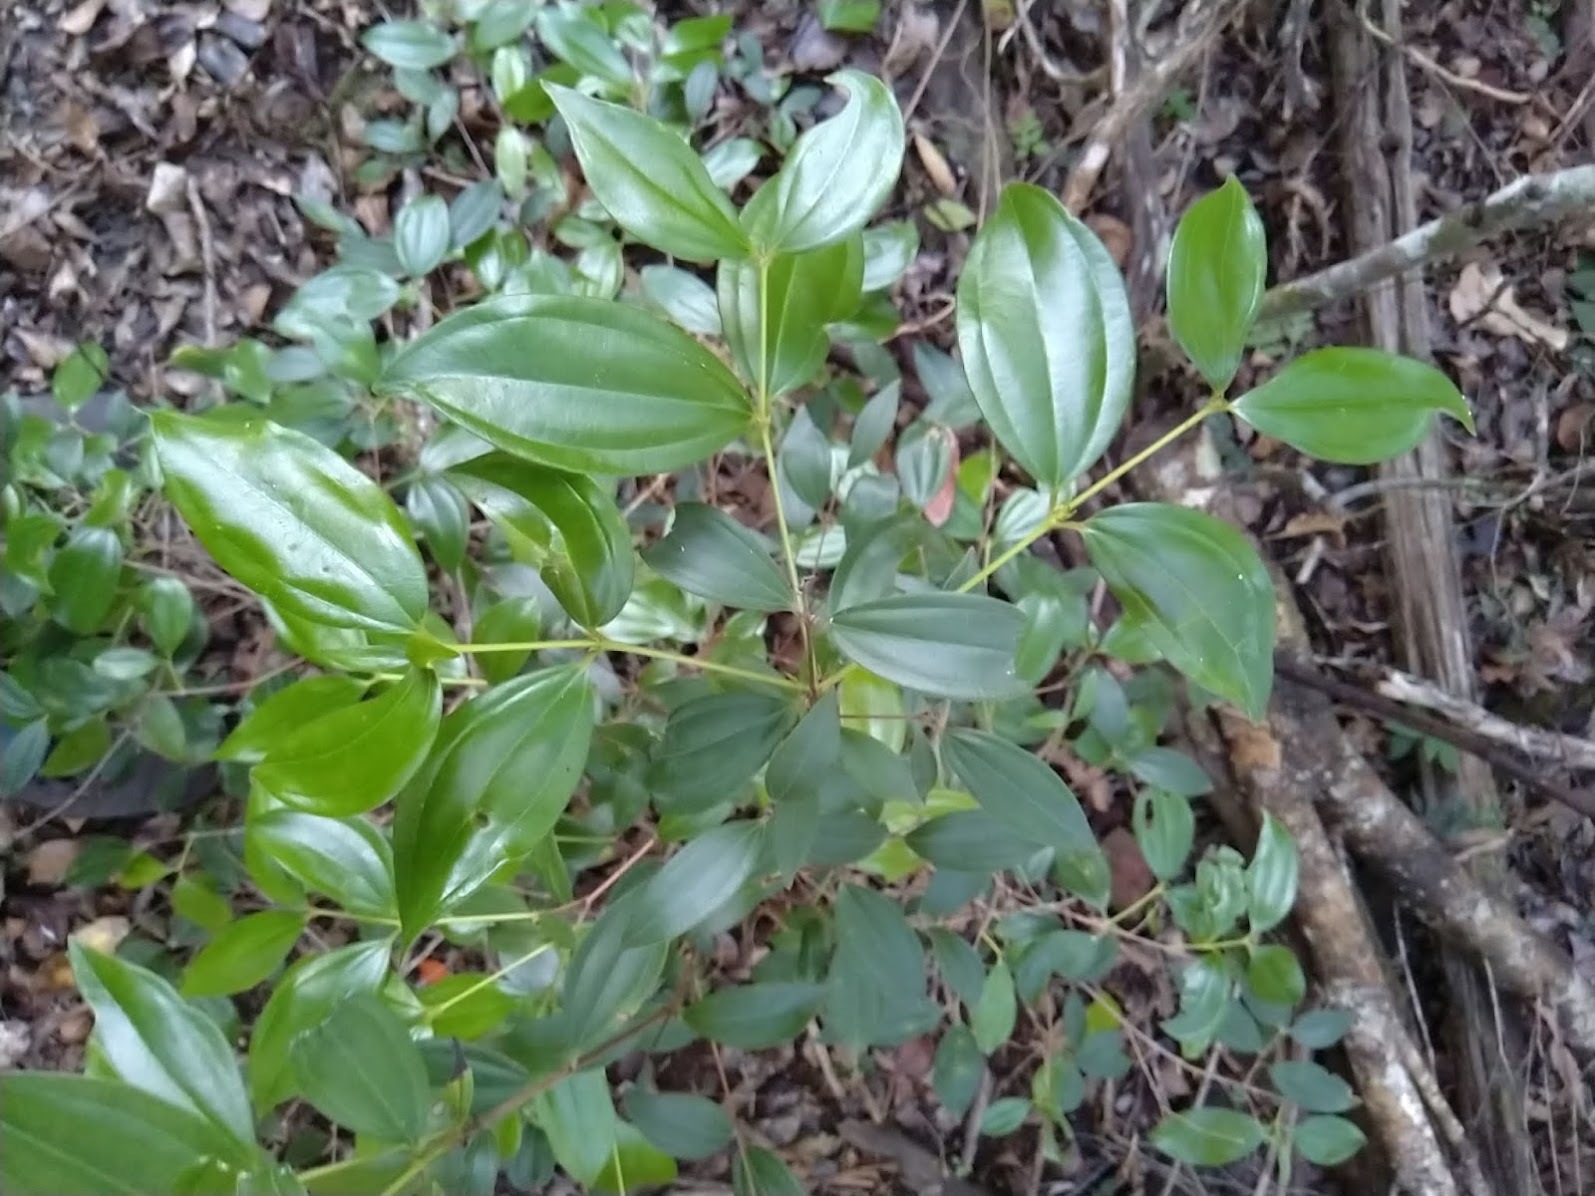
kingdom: Plantae
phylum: Tracheophyta
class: Magnoliopsida
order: Myrtales
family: Myrtaceae
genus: Rhodamnia
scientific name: Rhodamnia acuminata
